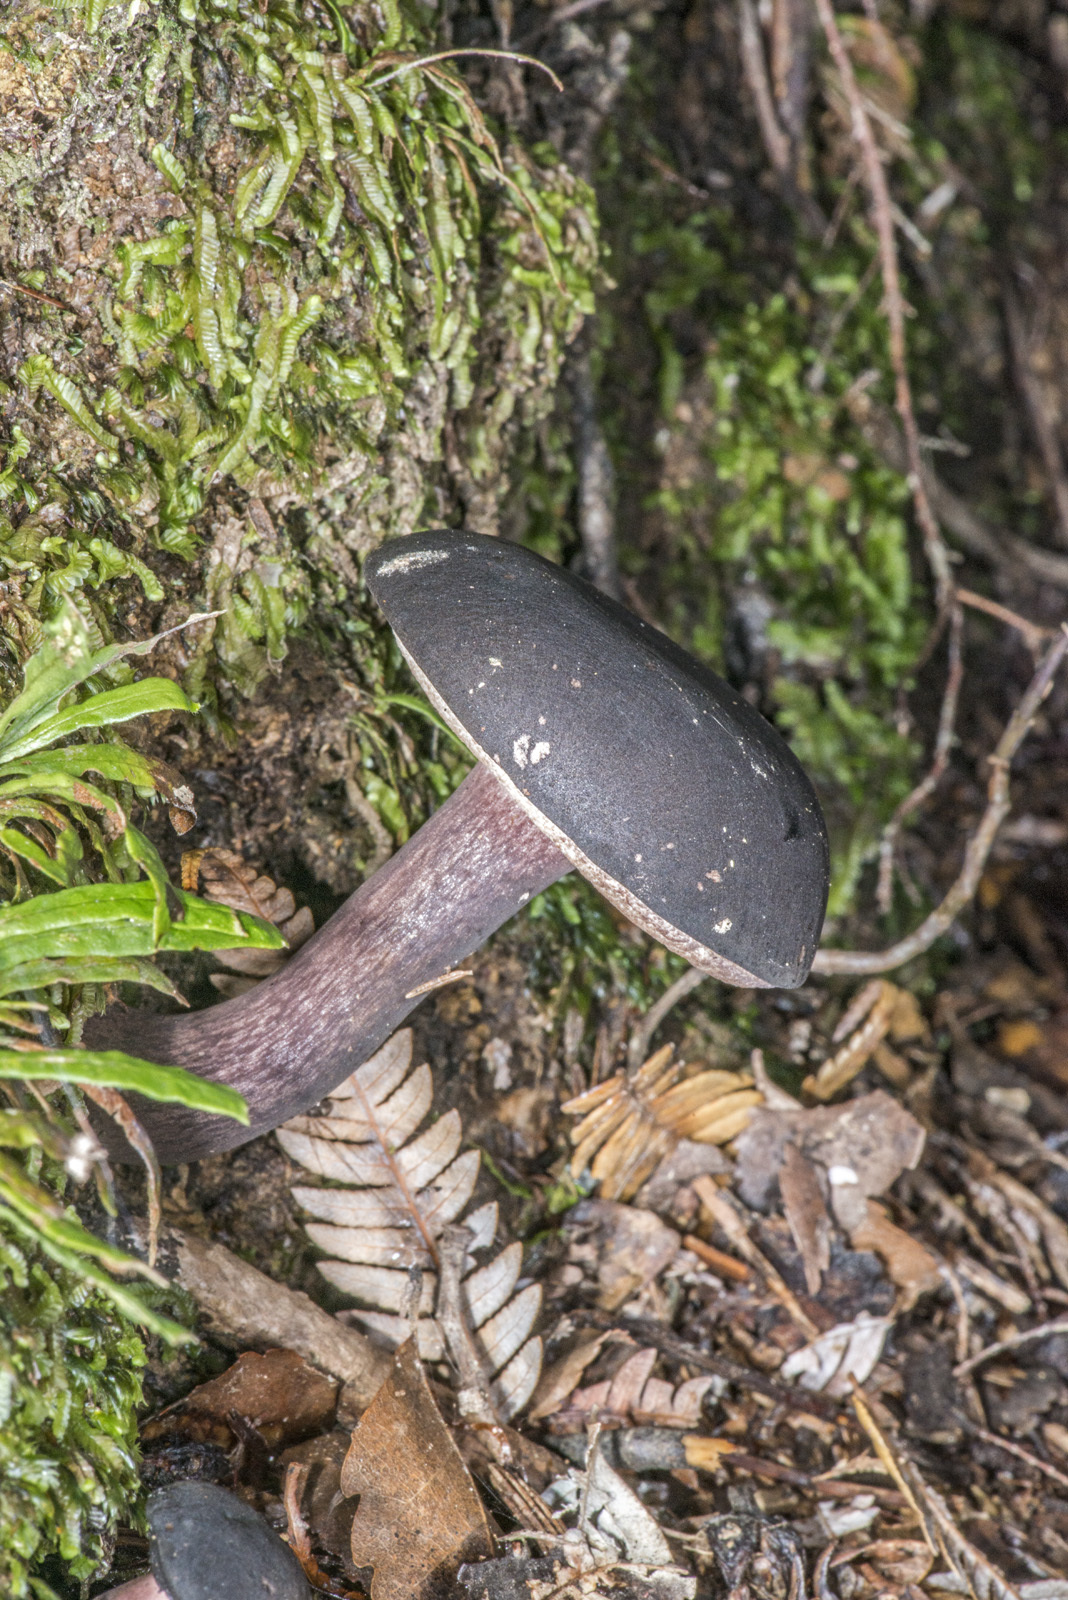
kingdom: Fungi
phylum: Basidiomycota
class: Agaricomycetes
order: Boletales
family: Boletaceae
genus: Porphyrellus
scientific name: Porphyrellus formosus
